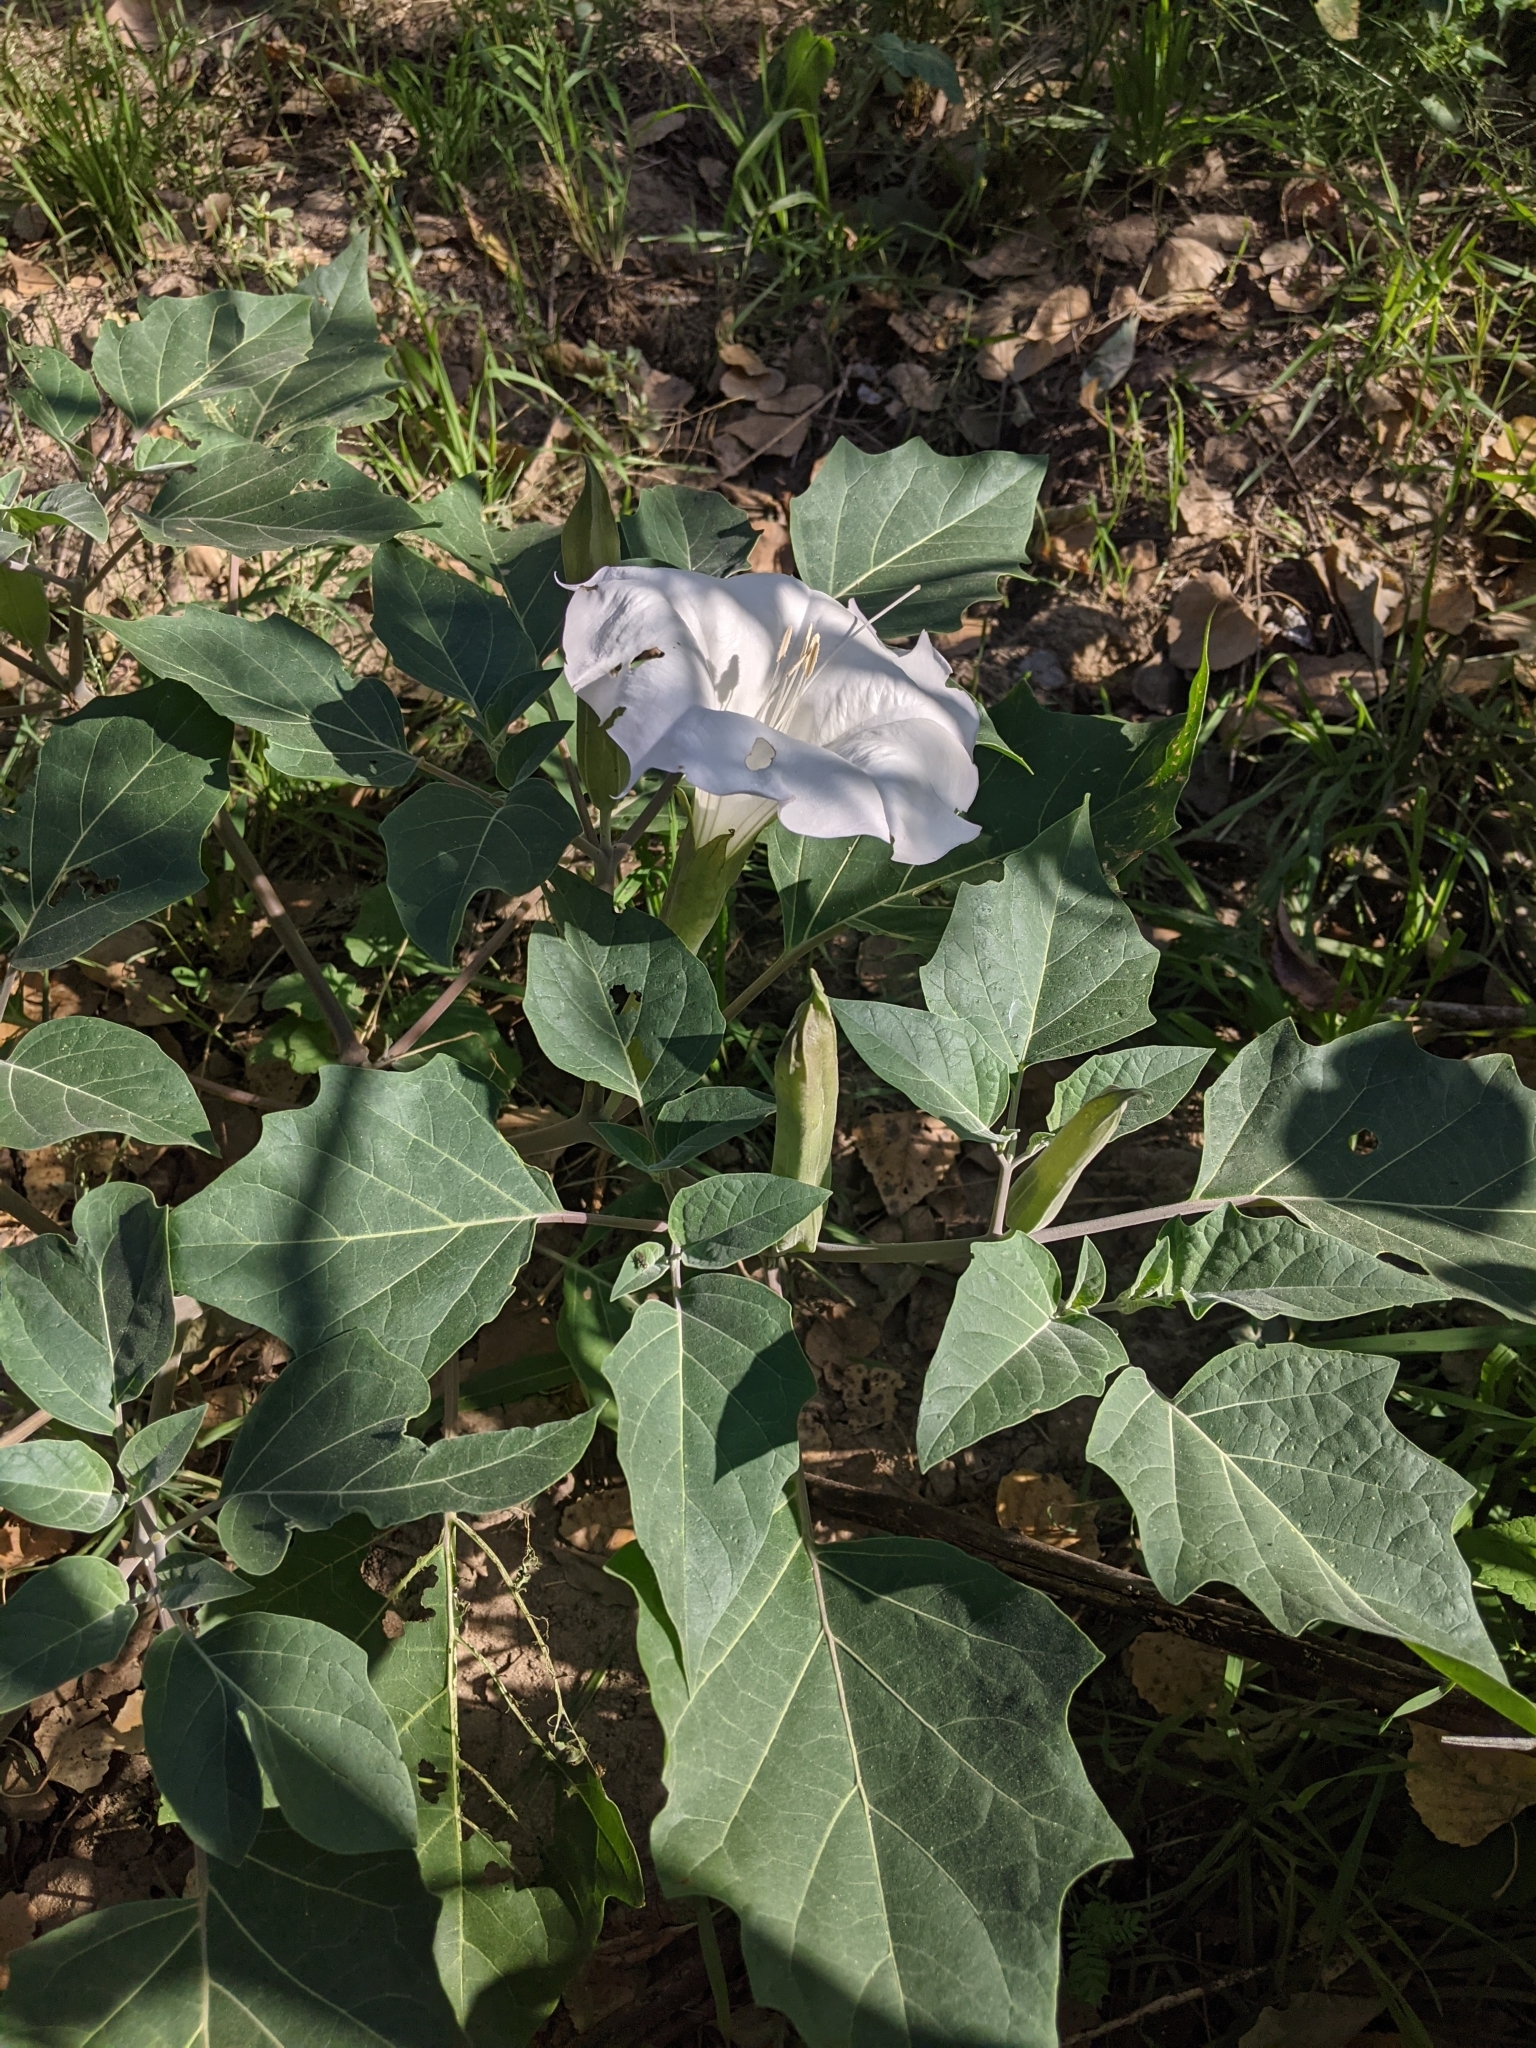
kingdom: Plantae
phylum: Tracheophyta
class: Magnoliopsida
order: Solanales
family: Solanaceae
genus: Datura
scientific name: Datura wrightii
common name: Sacred thorn-apple
